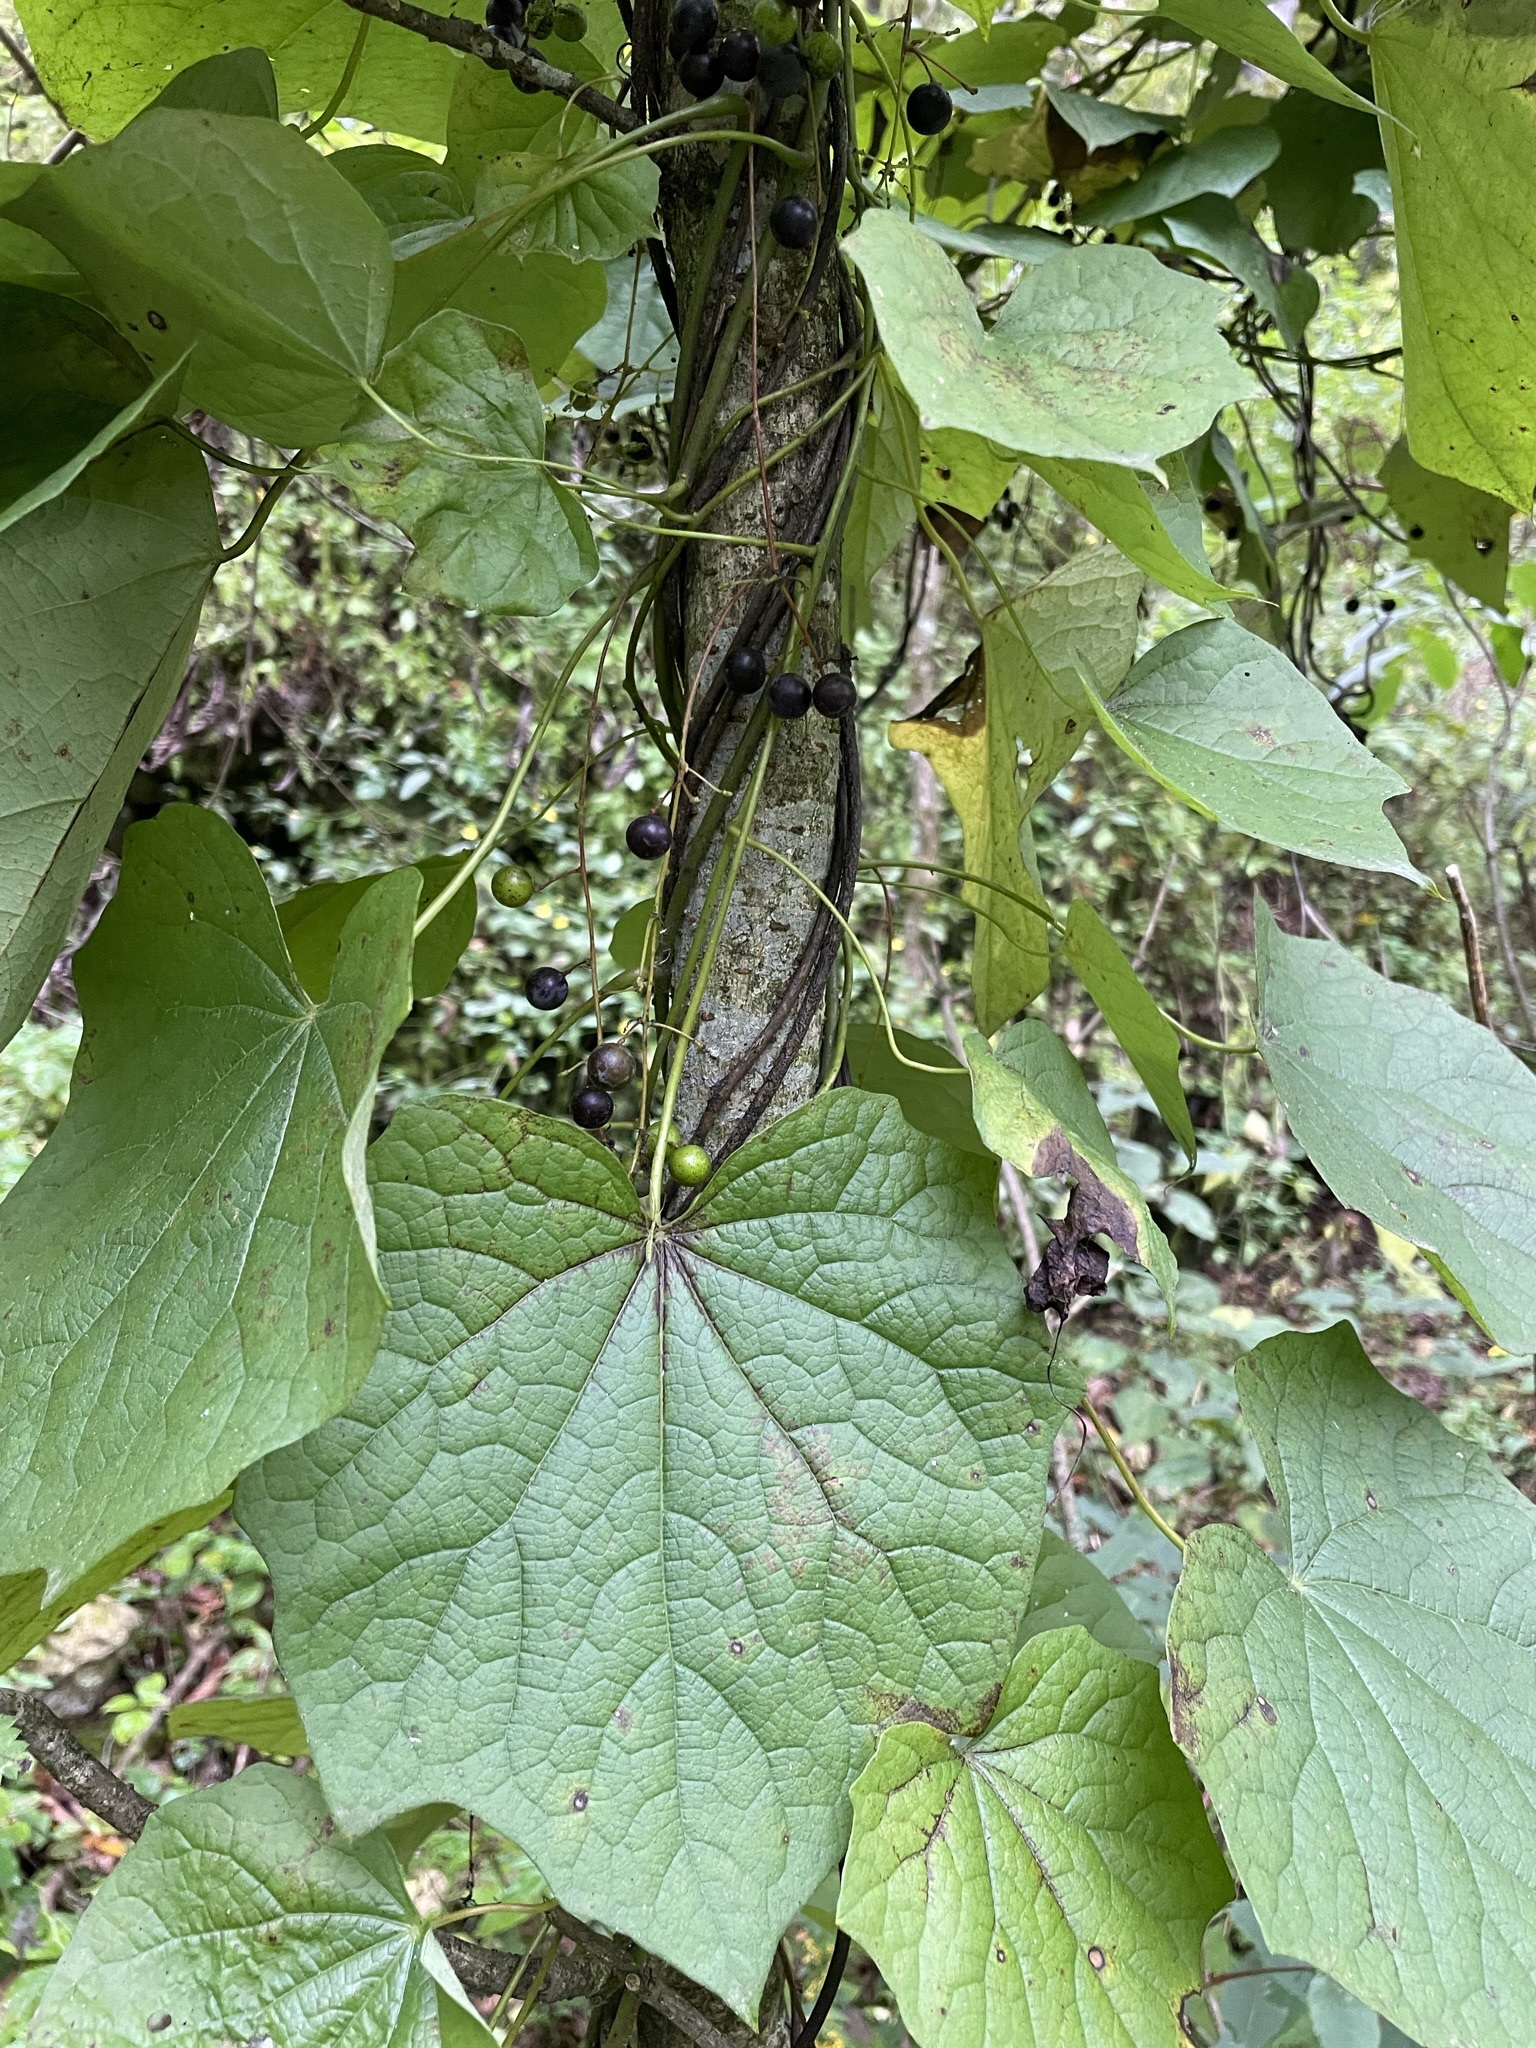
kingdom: Plantae
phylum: Tracheophyta
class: Magnoliopsida
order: Ranunculales
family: Menispermaceae
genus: Menispermum
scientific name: Menispermum canadense
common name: Moonseed
